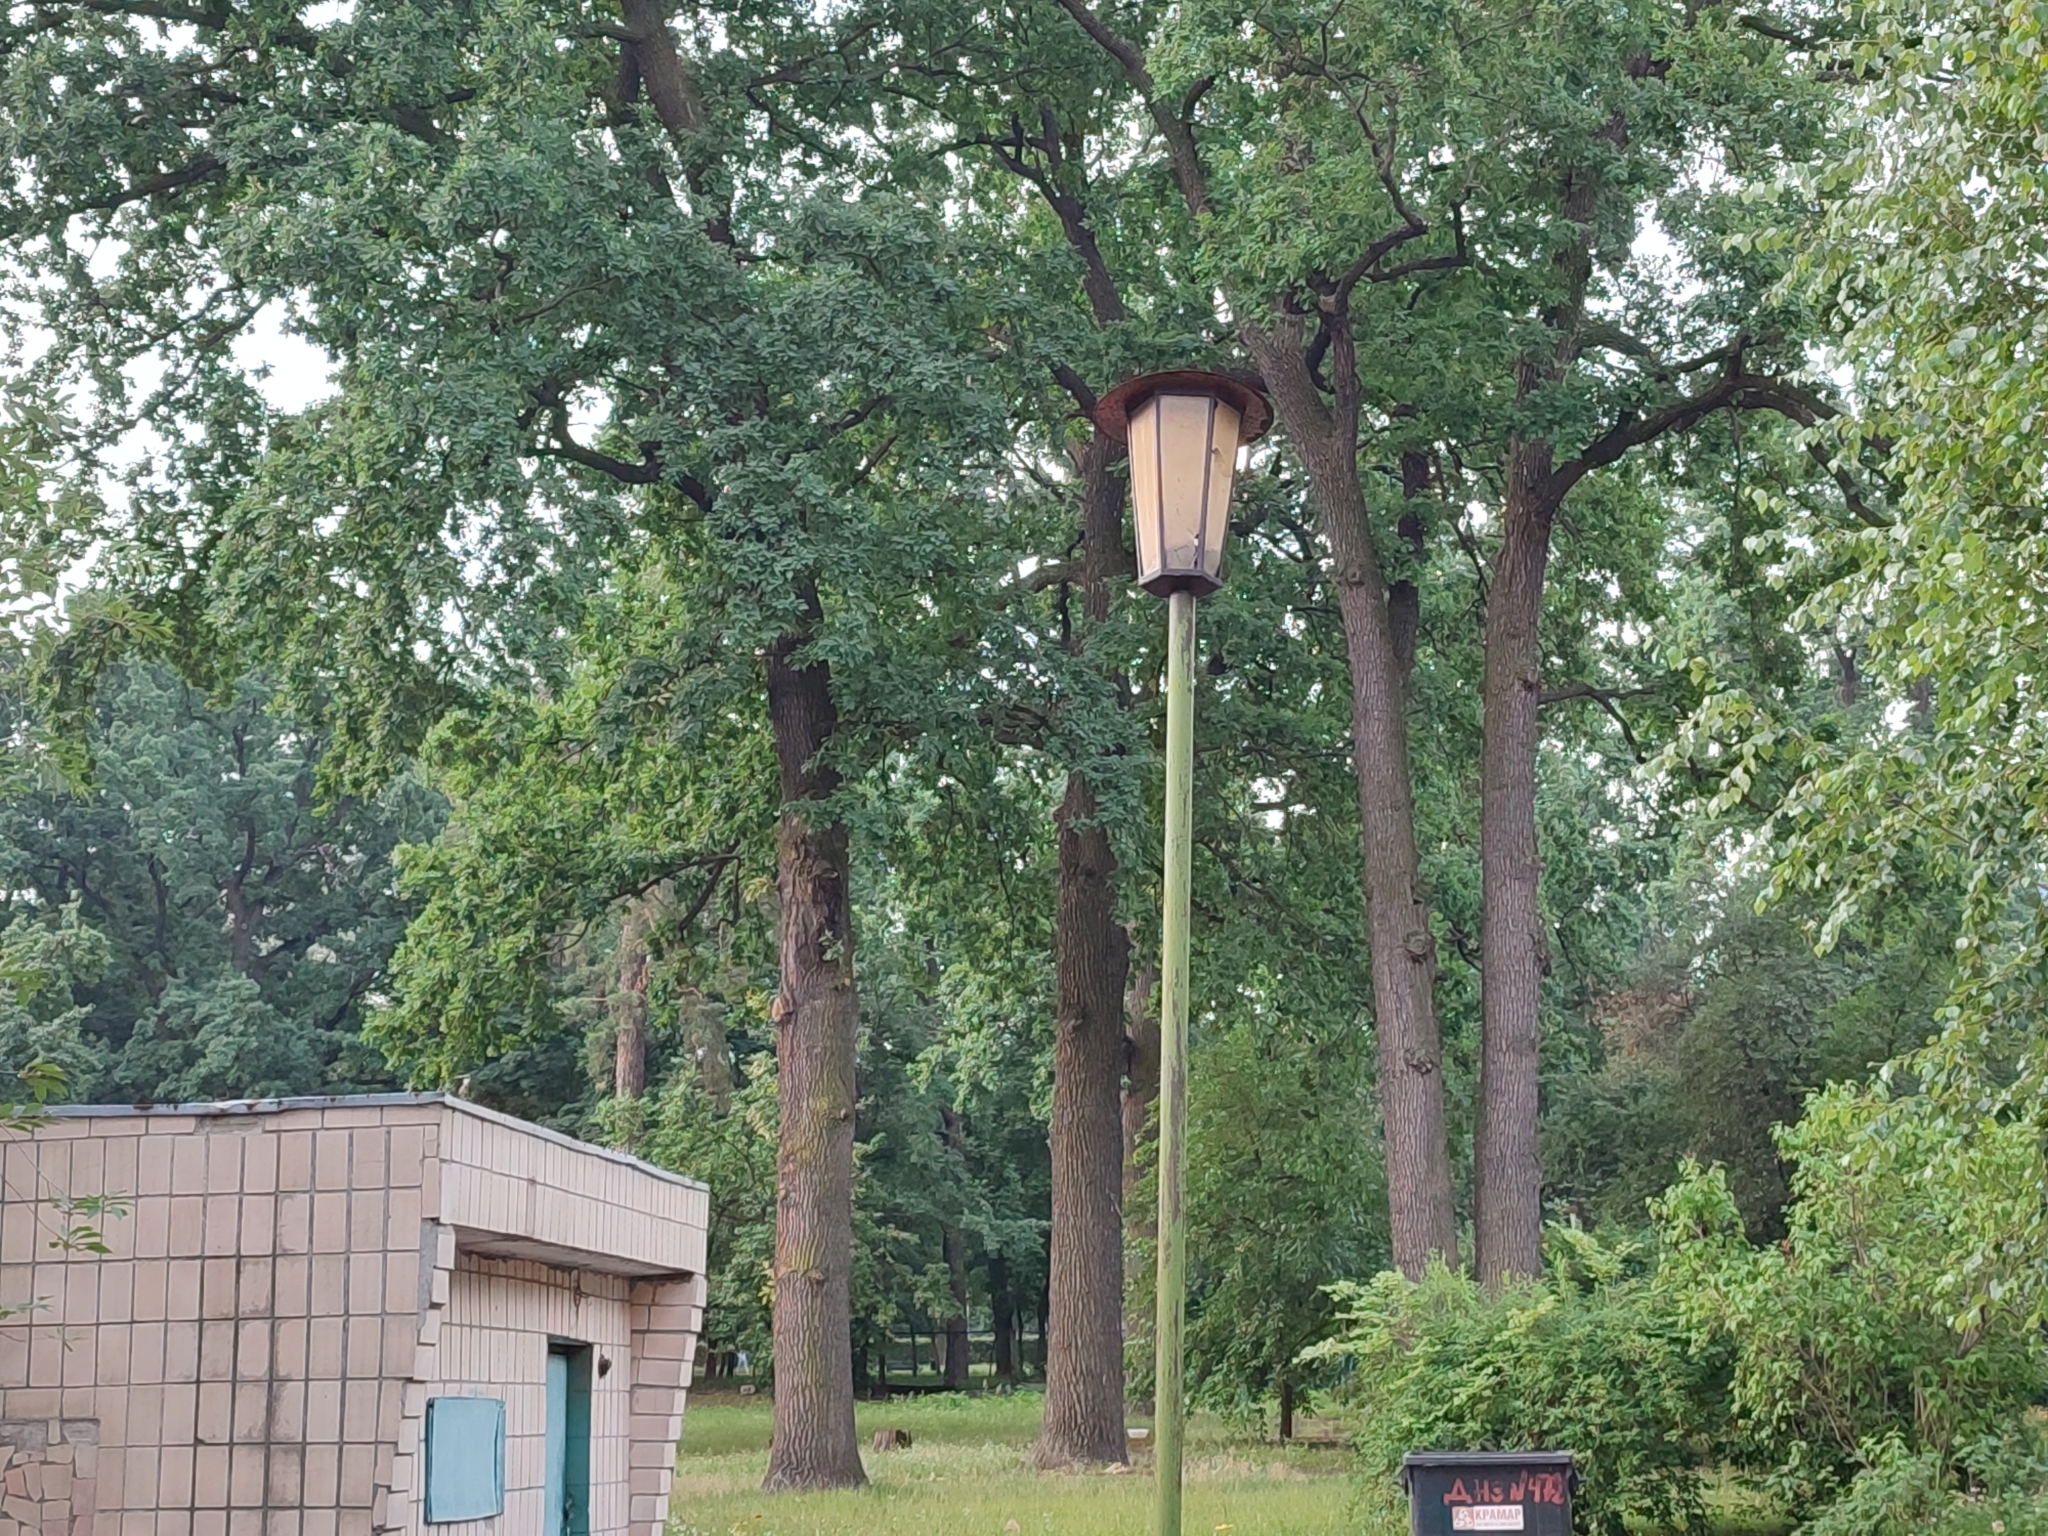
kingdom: Plantae
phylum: Tracheophyta
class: Magnoliopsida
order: Fagales
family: Fagaceae
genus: Quercus
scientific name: Quercus robur
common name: Pedunculate oak
